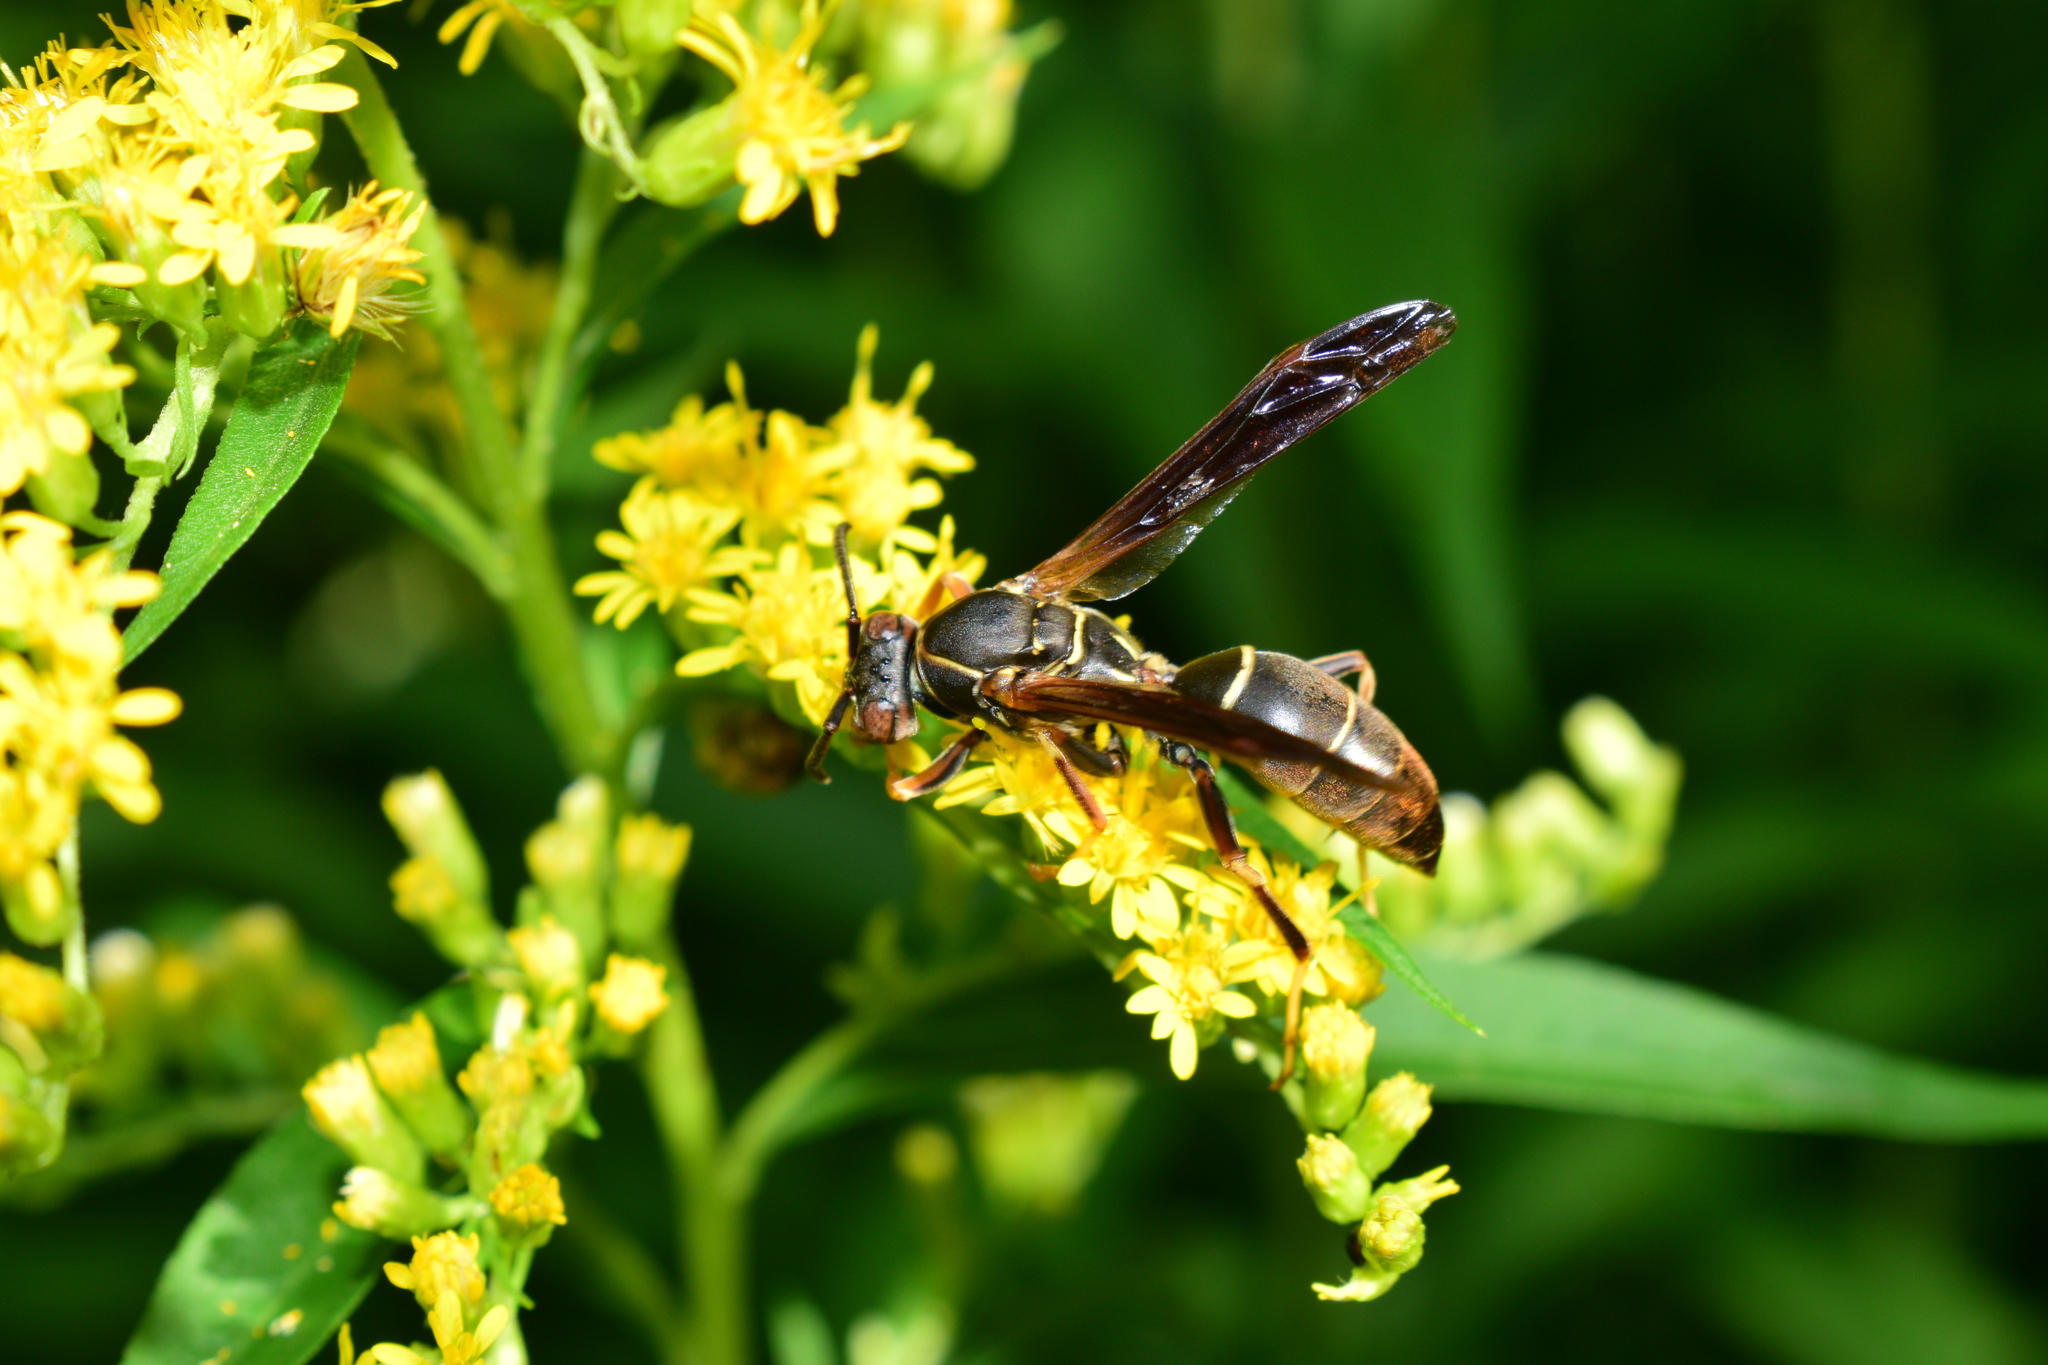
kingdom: Animalia
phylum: Arthropoda
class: Insecta
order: Hymenoptera
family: Eumenidae
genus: Polistes
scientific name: Polistes fuscatus
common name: Dark paper wasp
